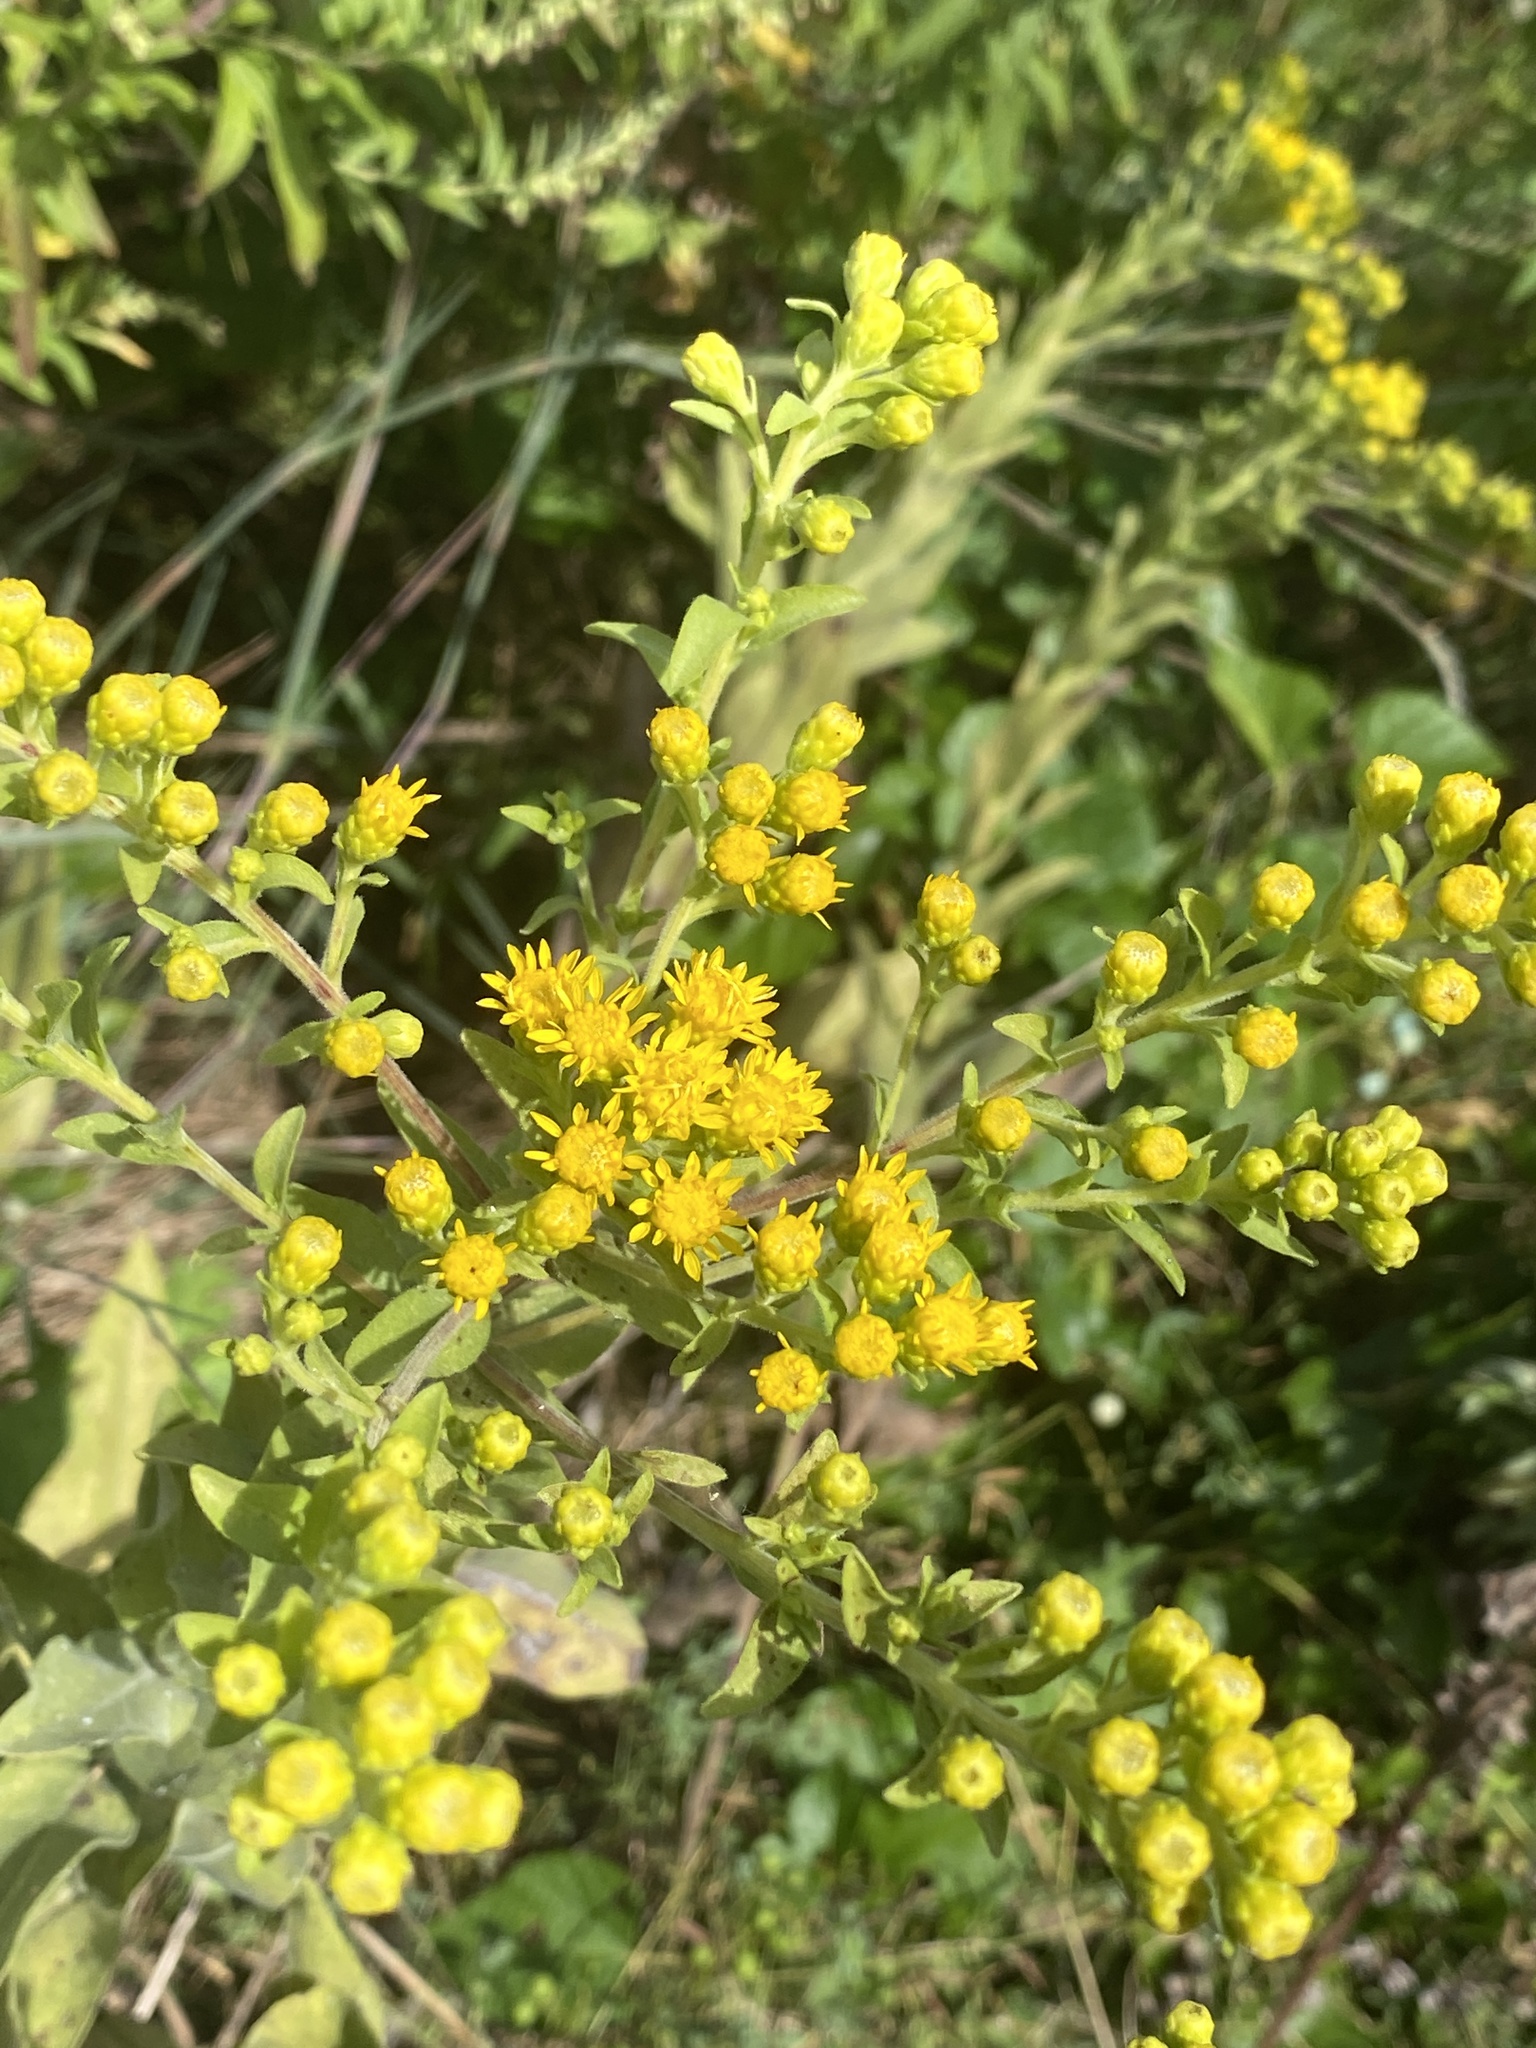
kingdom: Plantae
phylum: Tracheophyta
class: Magnoliopsida
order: Asterales
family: Asteraceae
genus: Solidago
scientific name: Solidago rigida
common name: Rigid goldenrod
